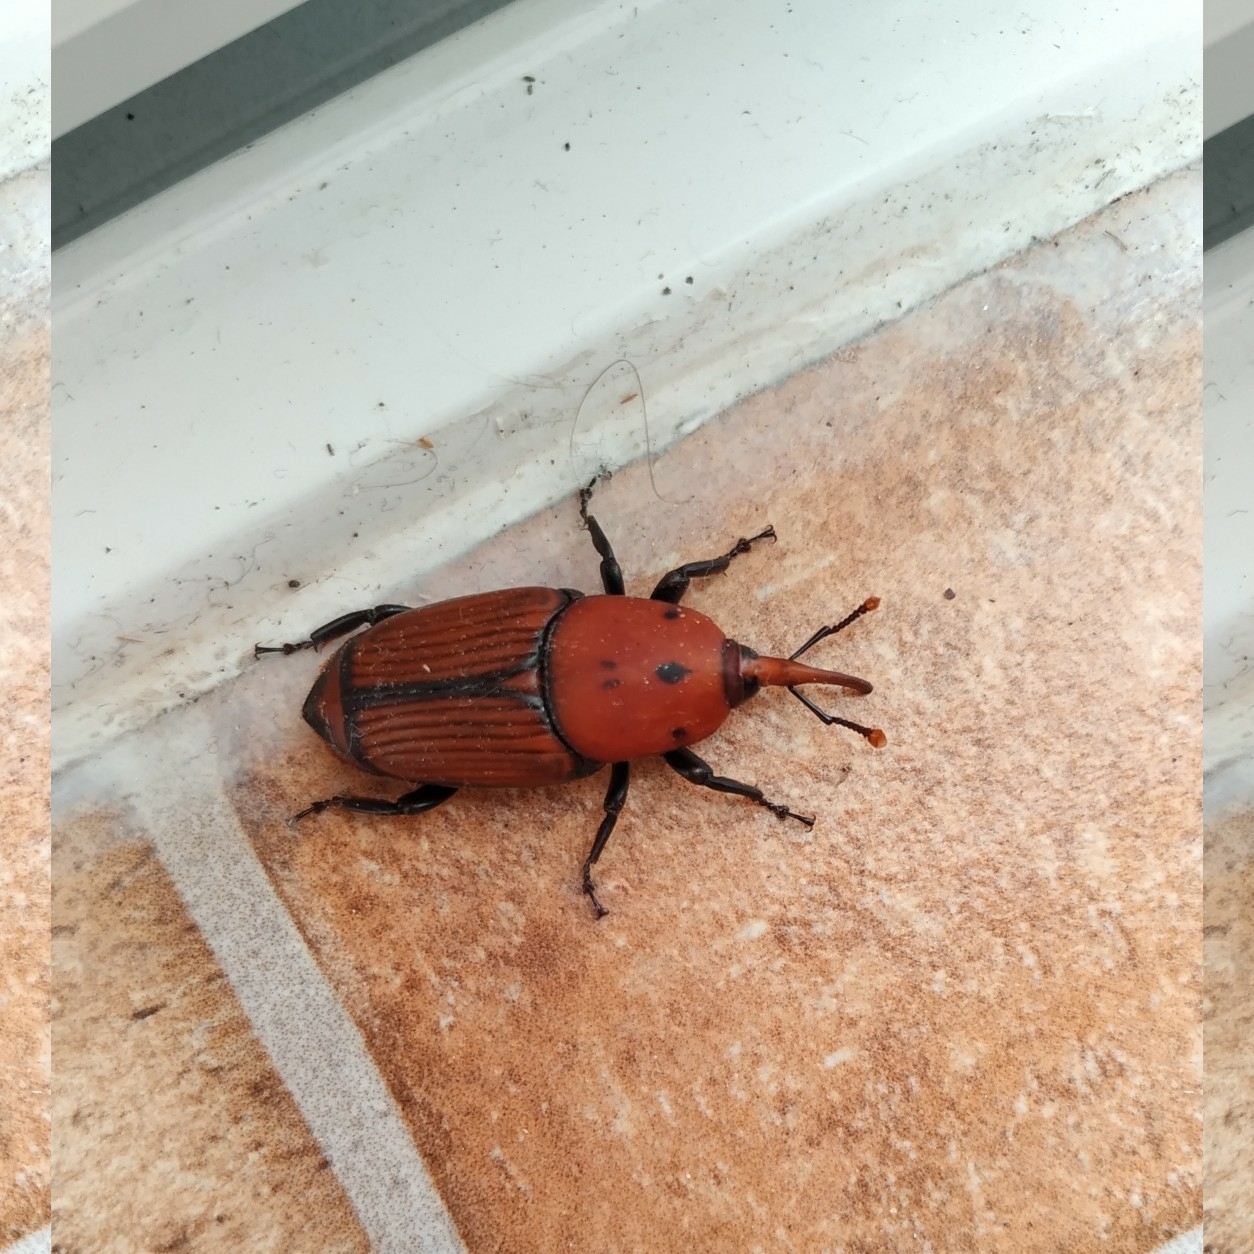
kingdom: Animalia
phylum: Arthropoda
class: Insecta
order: Coleoptera
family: Dryophthoridae
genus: Rhynchophorus
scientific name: Rhynchophorus ferrugineus
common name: Red palm weevil
